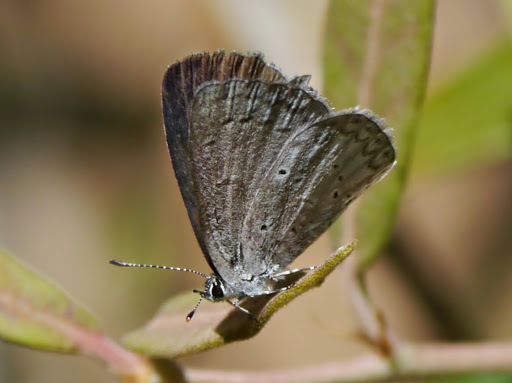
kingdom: Animalia
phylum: Arthropoda
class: Insecta
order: Lepidoptera
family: Lycaenidae
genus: Celastrina
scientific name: Celastrina ladon
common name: Spring azure
